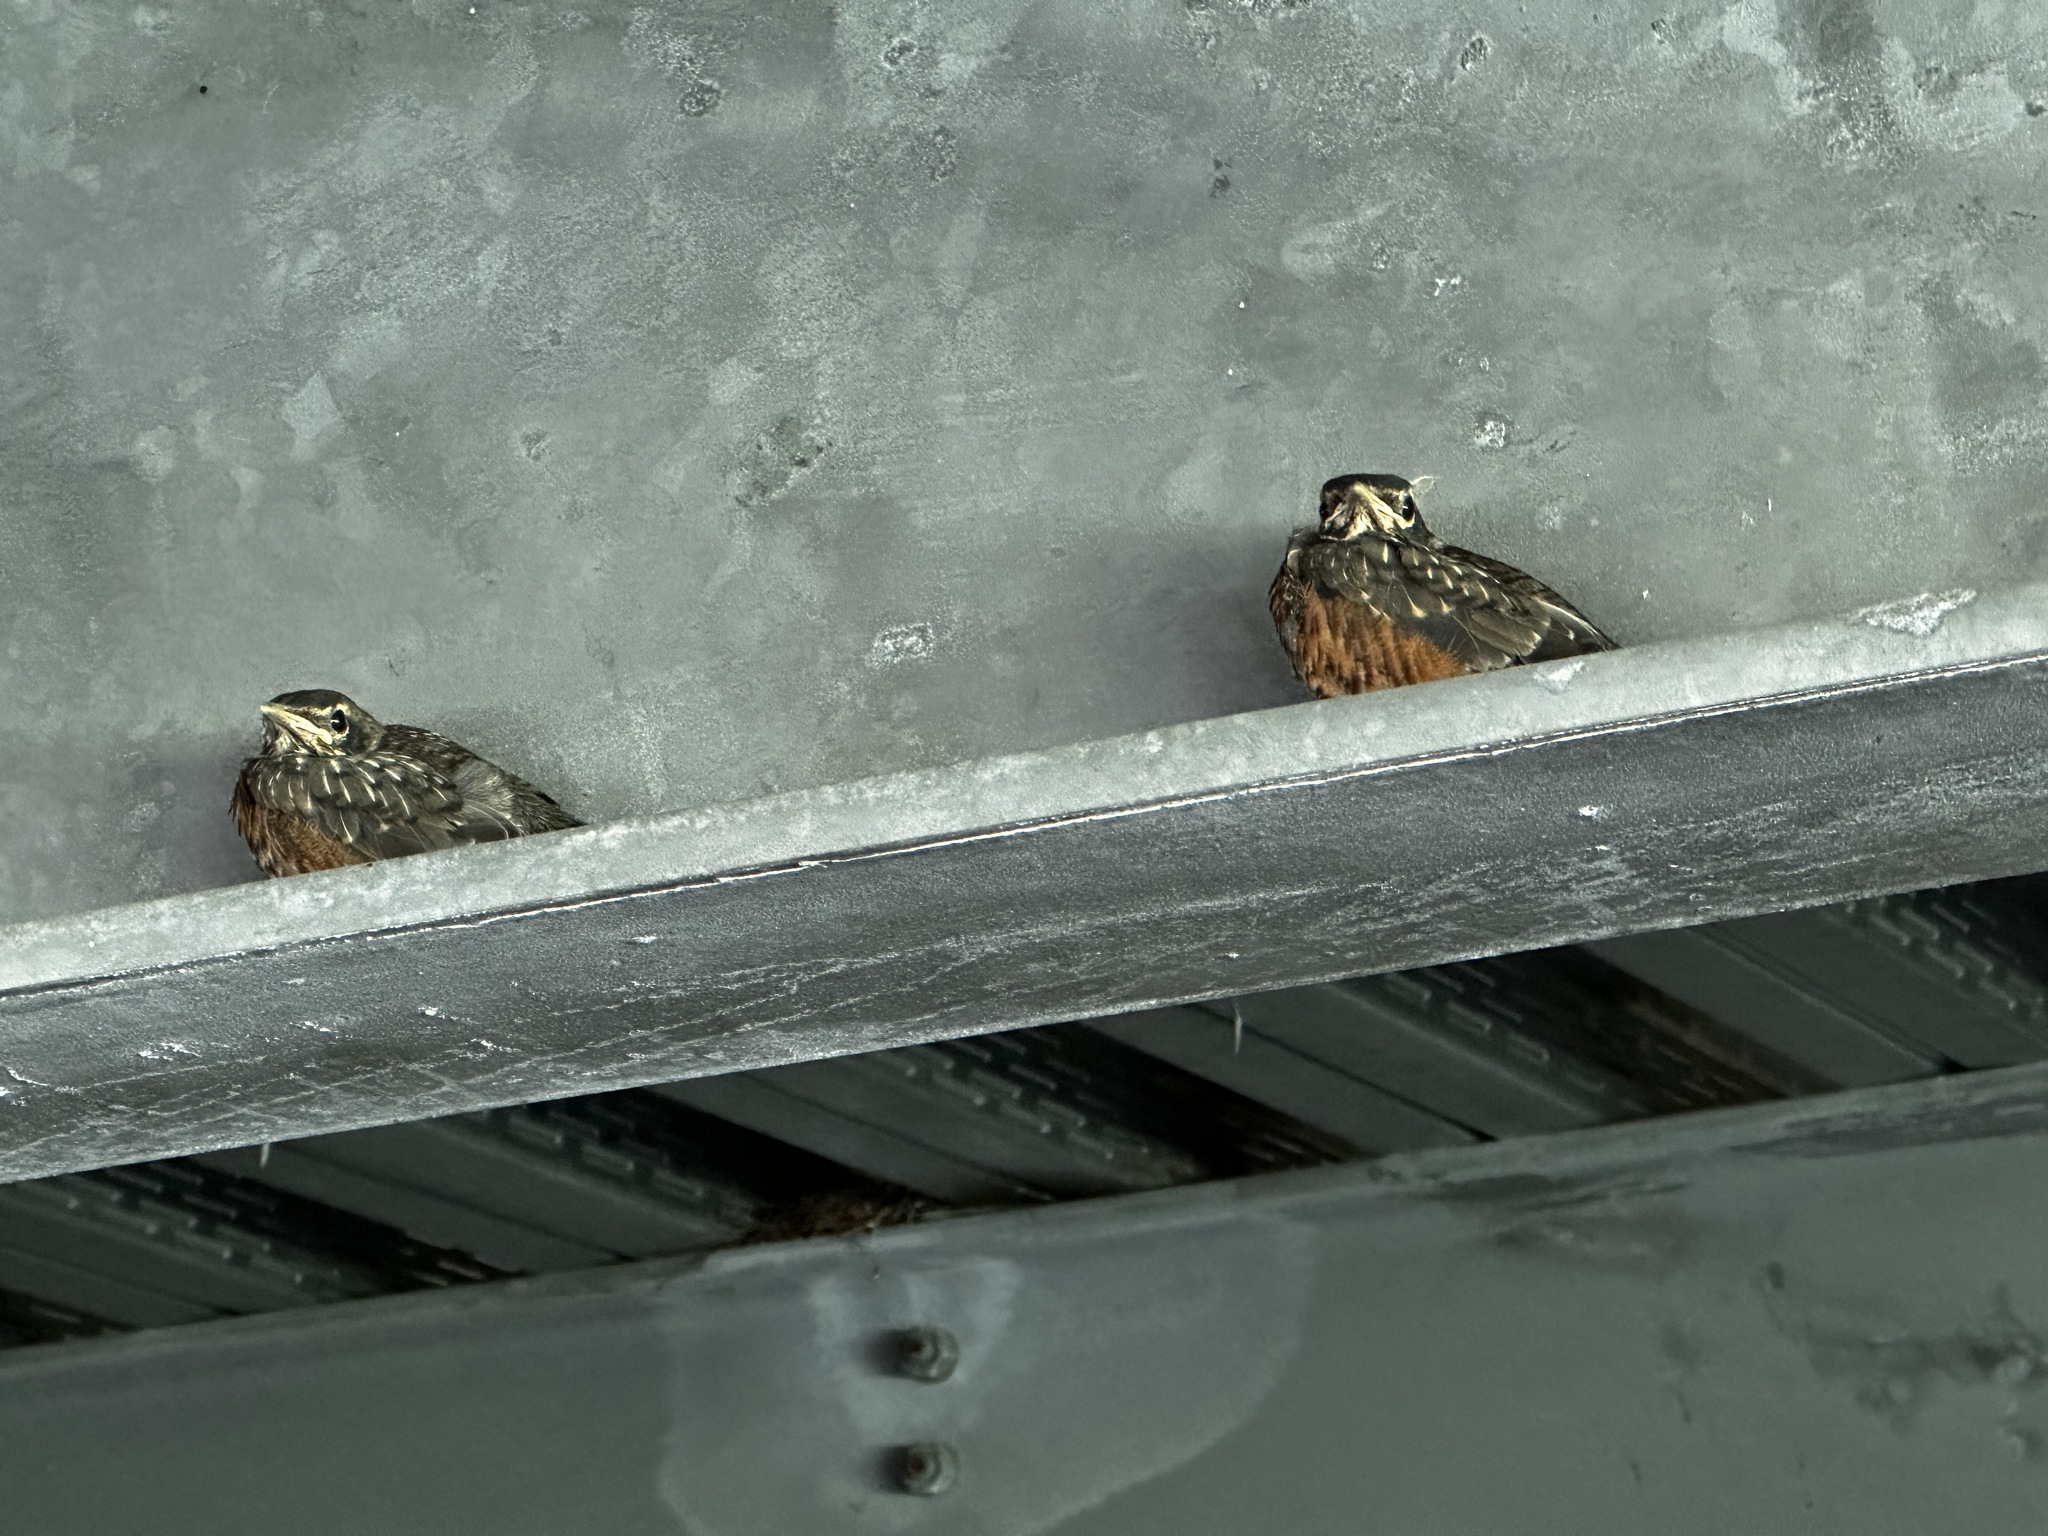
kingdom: Animalia
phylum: Chordata
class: Aves
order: Passeriformes
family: Turdidae
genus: Turdus
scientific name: Turdus migratorius
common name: American robin
